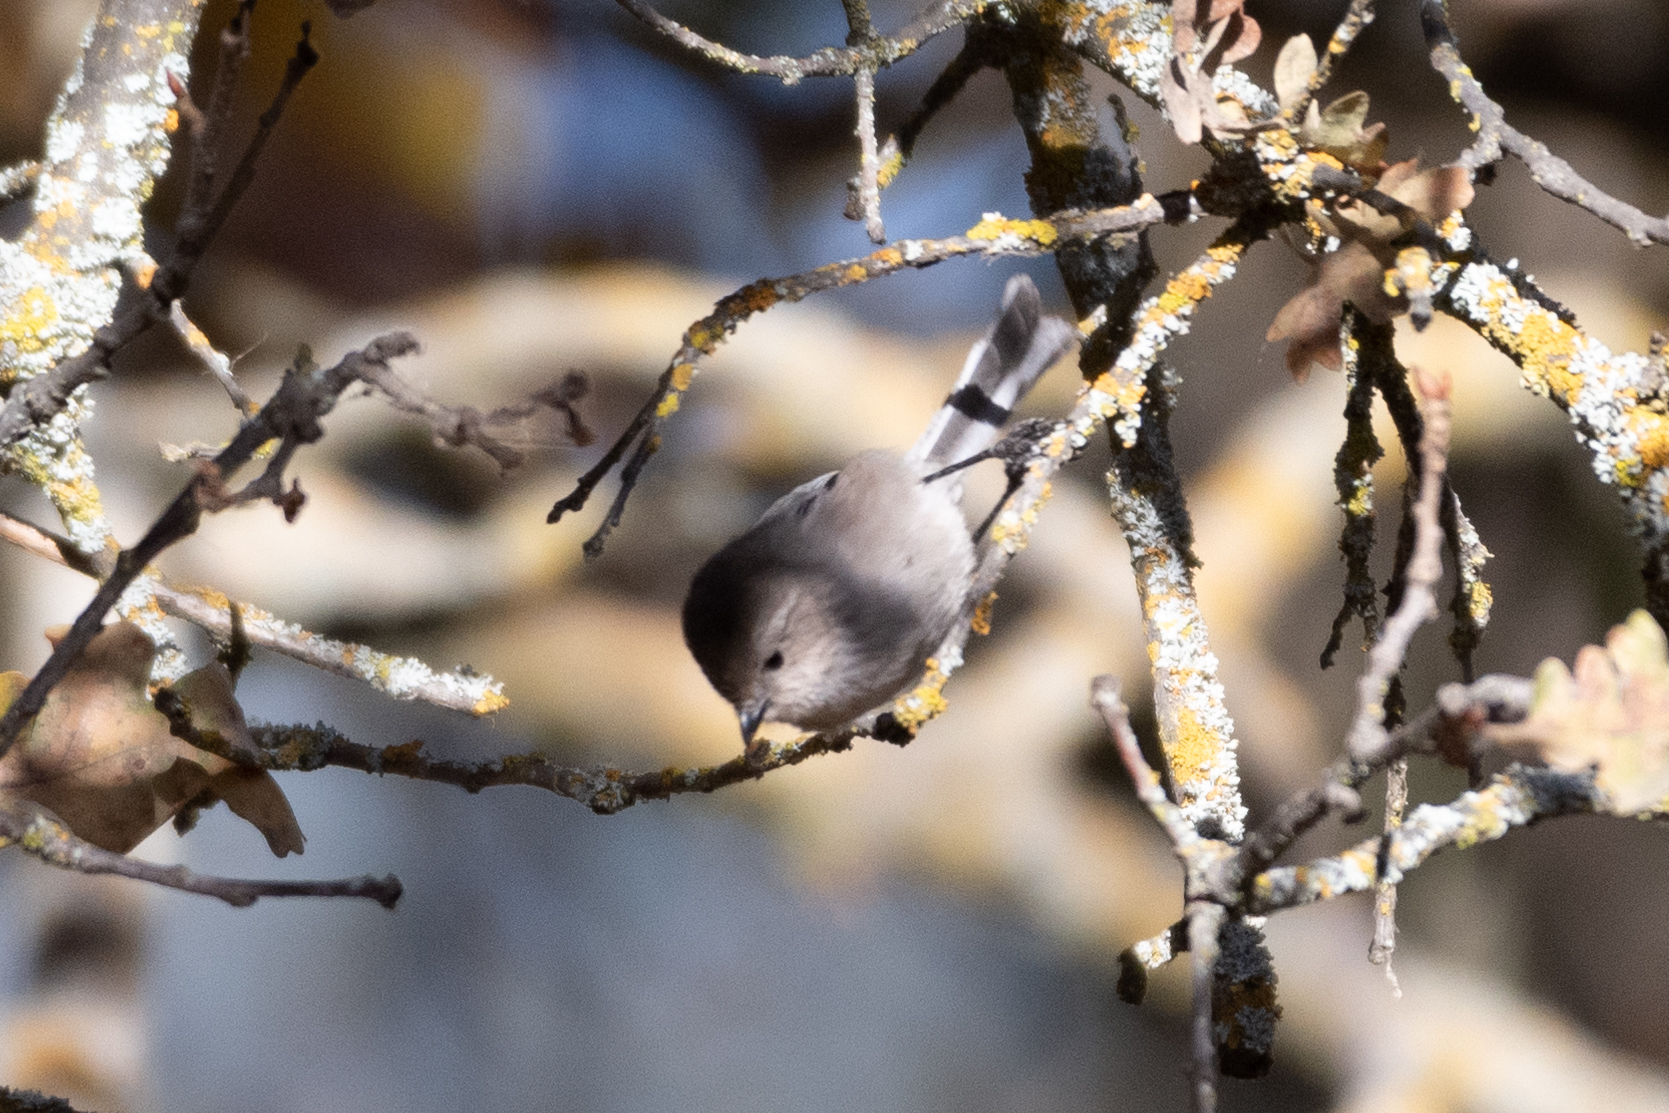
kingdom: Animalia
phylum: Chordata
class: Aves
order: Passeriformes
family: Aegithalidae
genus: Psaltriparus
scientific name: Psaltriparus minimus
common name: American bushtit
